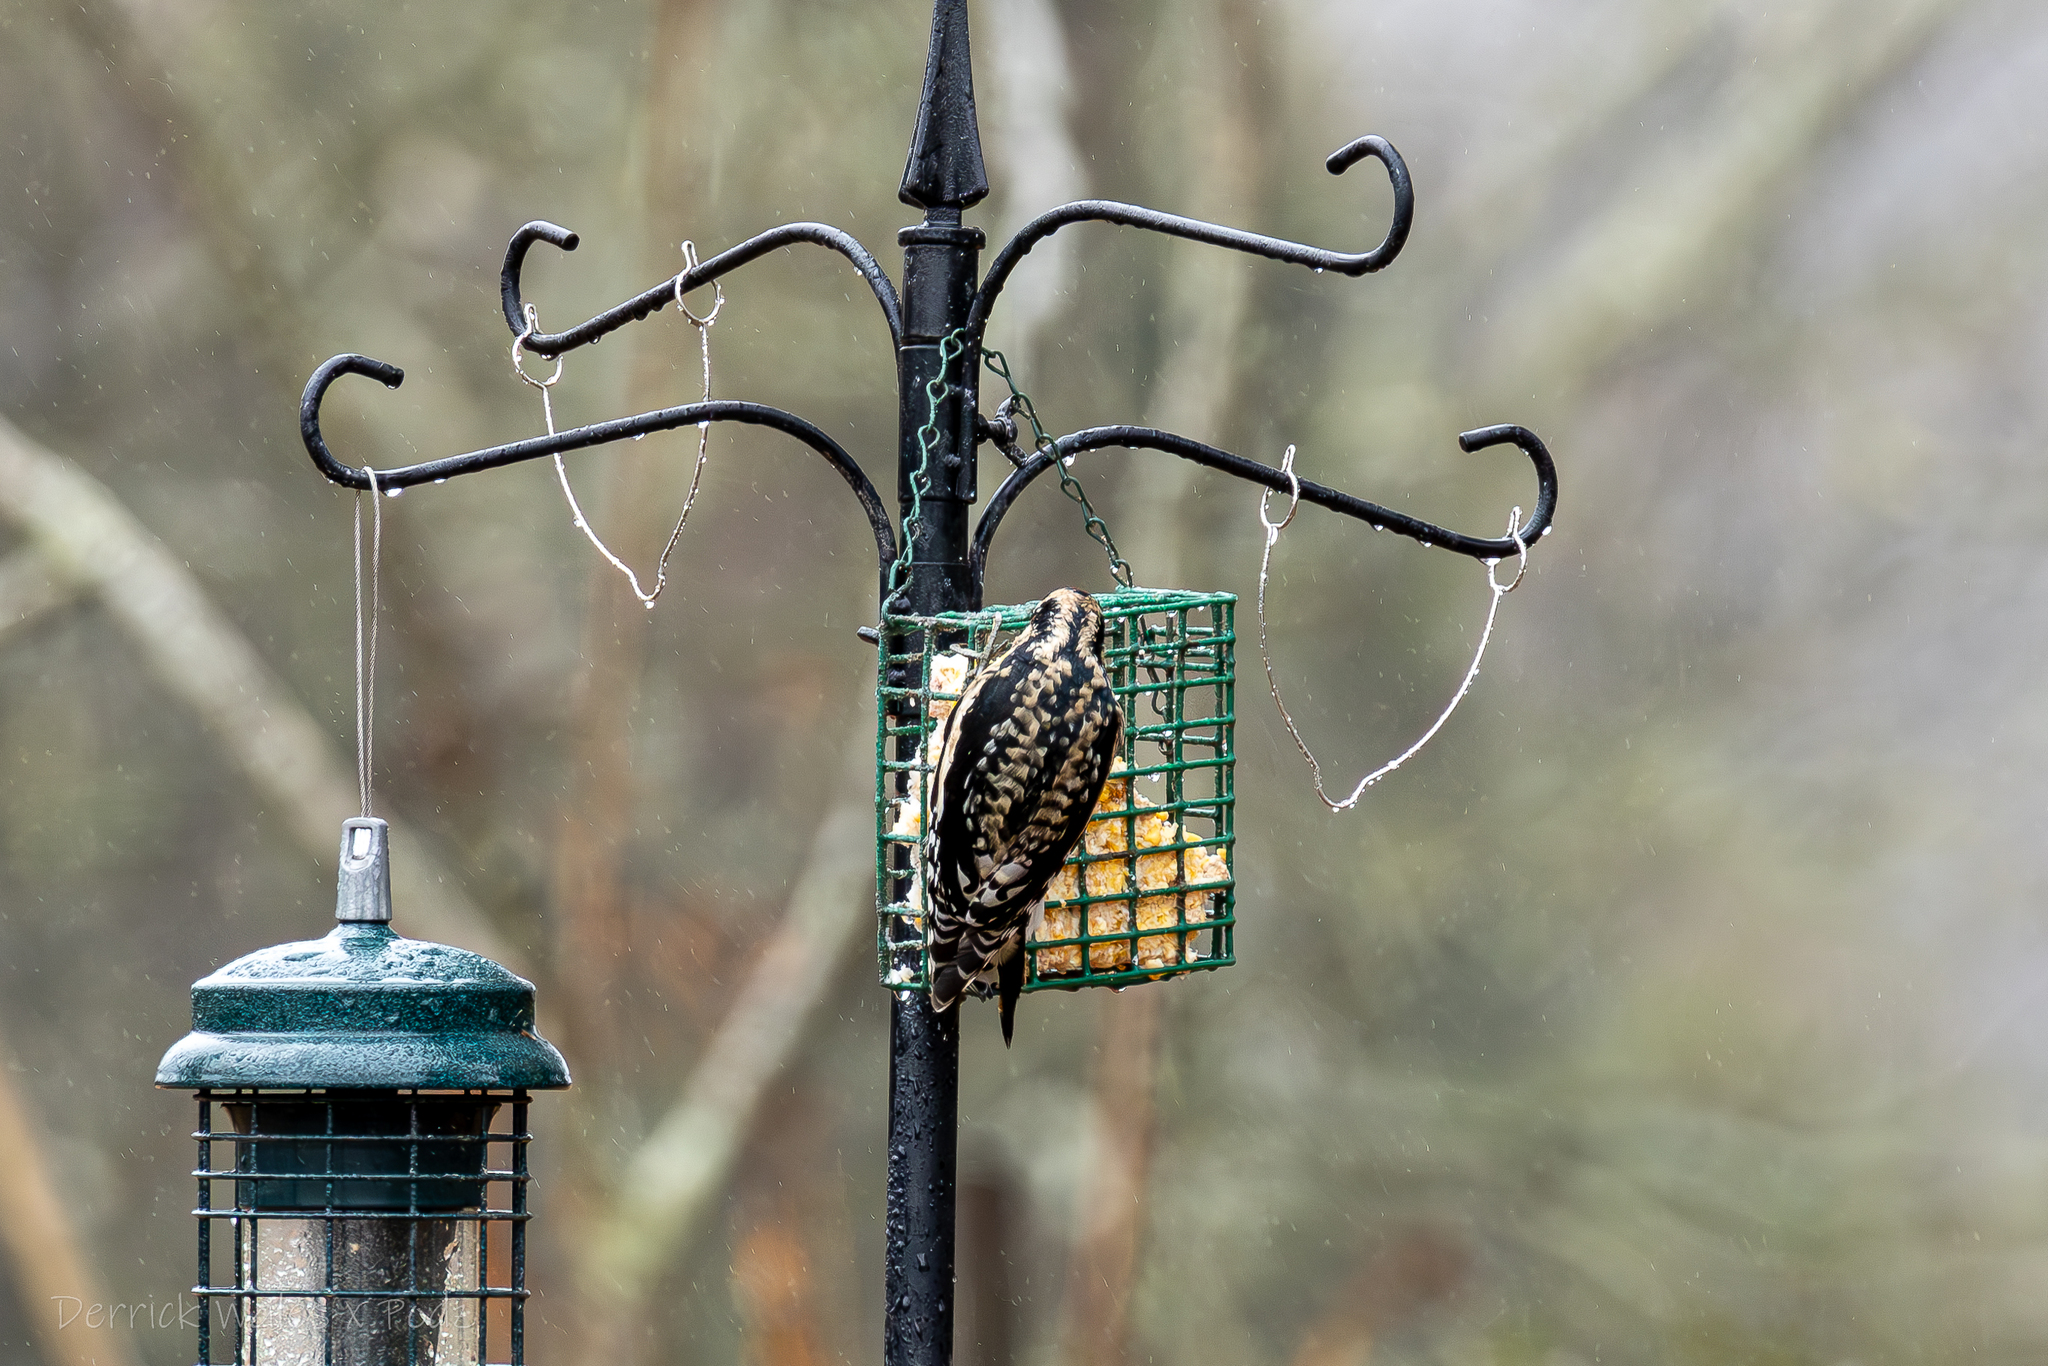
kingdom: Animalia
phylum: Chordata
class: Aves
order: Piciformes
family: Picidae
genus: Sphyrapicus
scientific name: Sphyrapicus varius
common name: Yellow-bellied sapsucker
